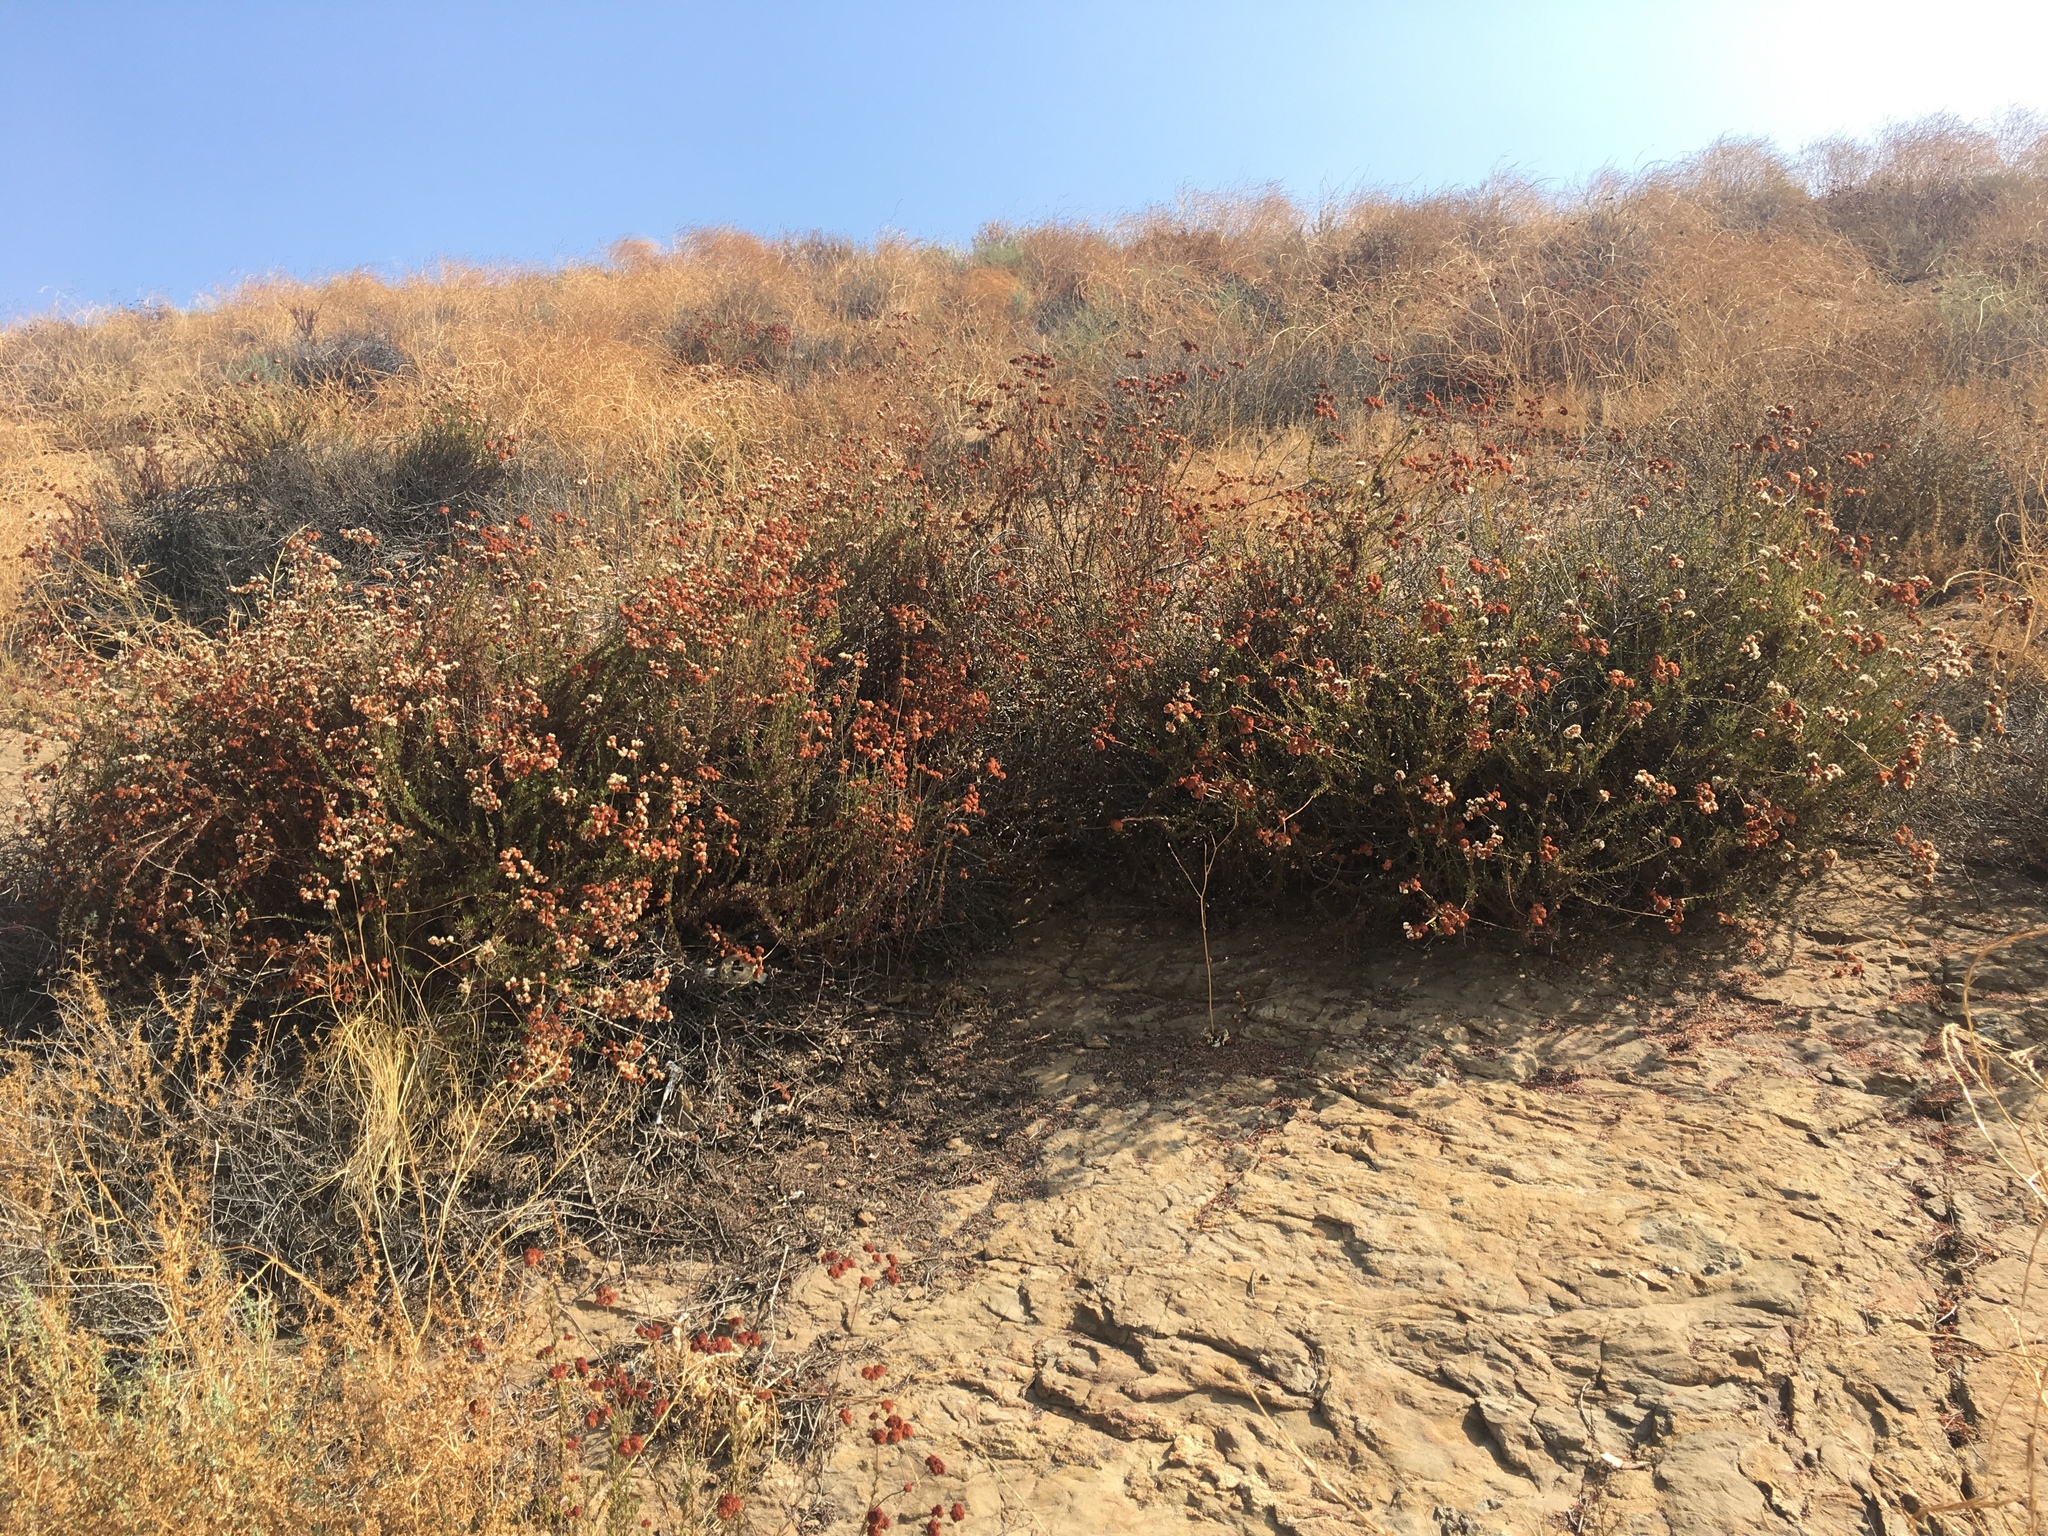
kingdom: Plantae
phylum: Tracheophyta
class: Magnoliopsida
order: Caryophyllales
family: Polygonaceae
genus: Eriogonum
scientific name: Eriogonum fasciculatum
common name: California wild buckwheat
